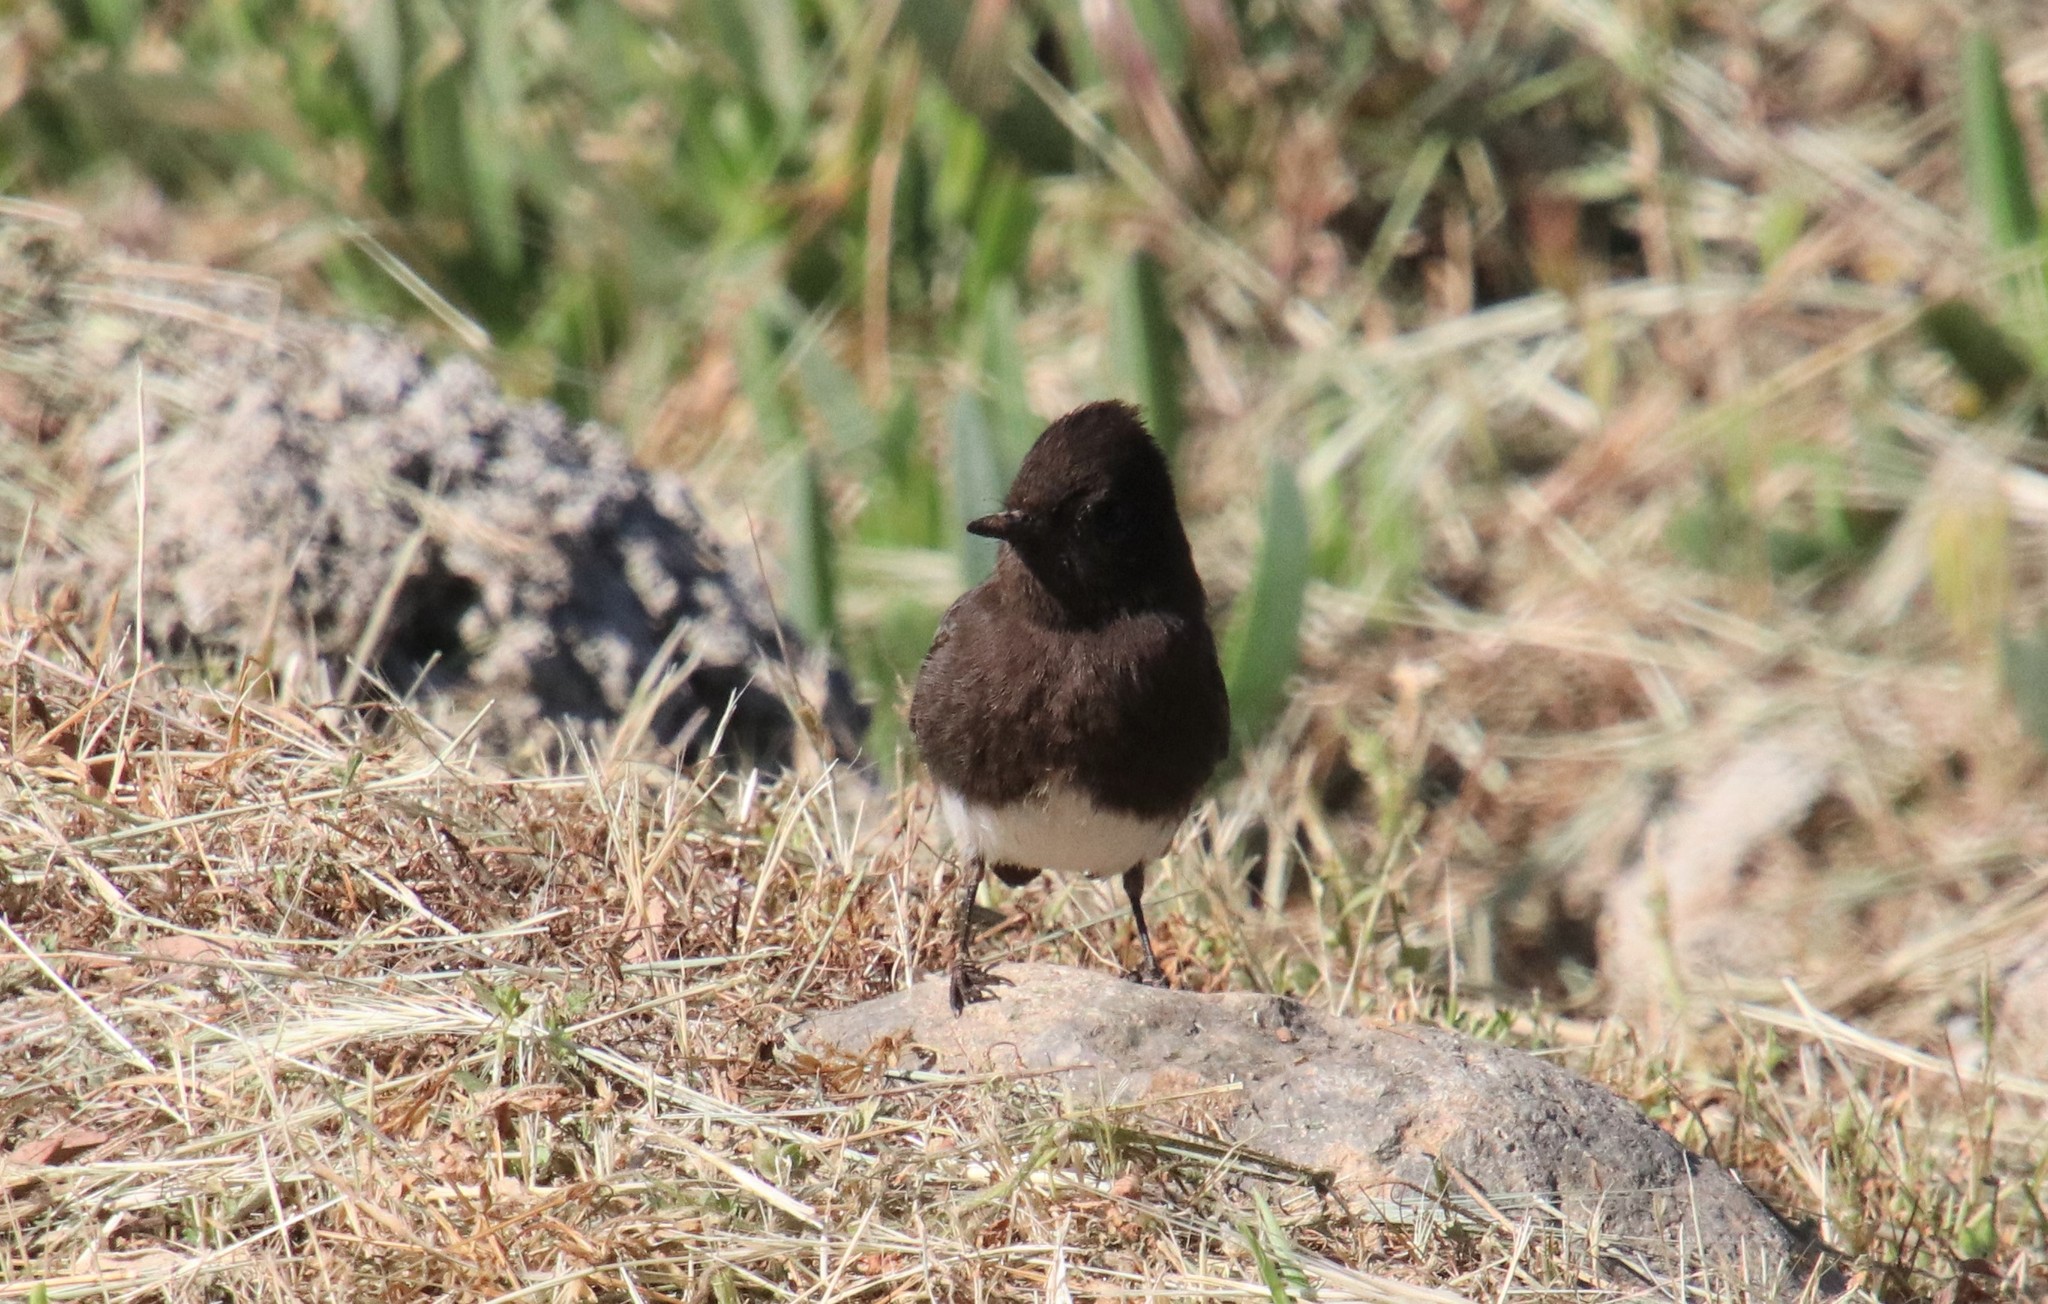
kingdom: Animalia
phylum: Chordata
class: Aves
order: Passeriformes
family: Tyrannidae
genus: Sayornis
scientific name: Sayornis nigricans
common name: Black phoebe
